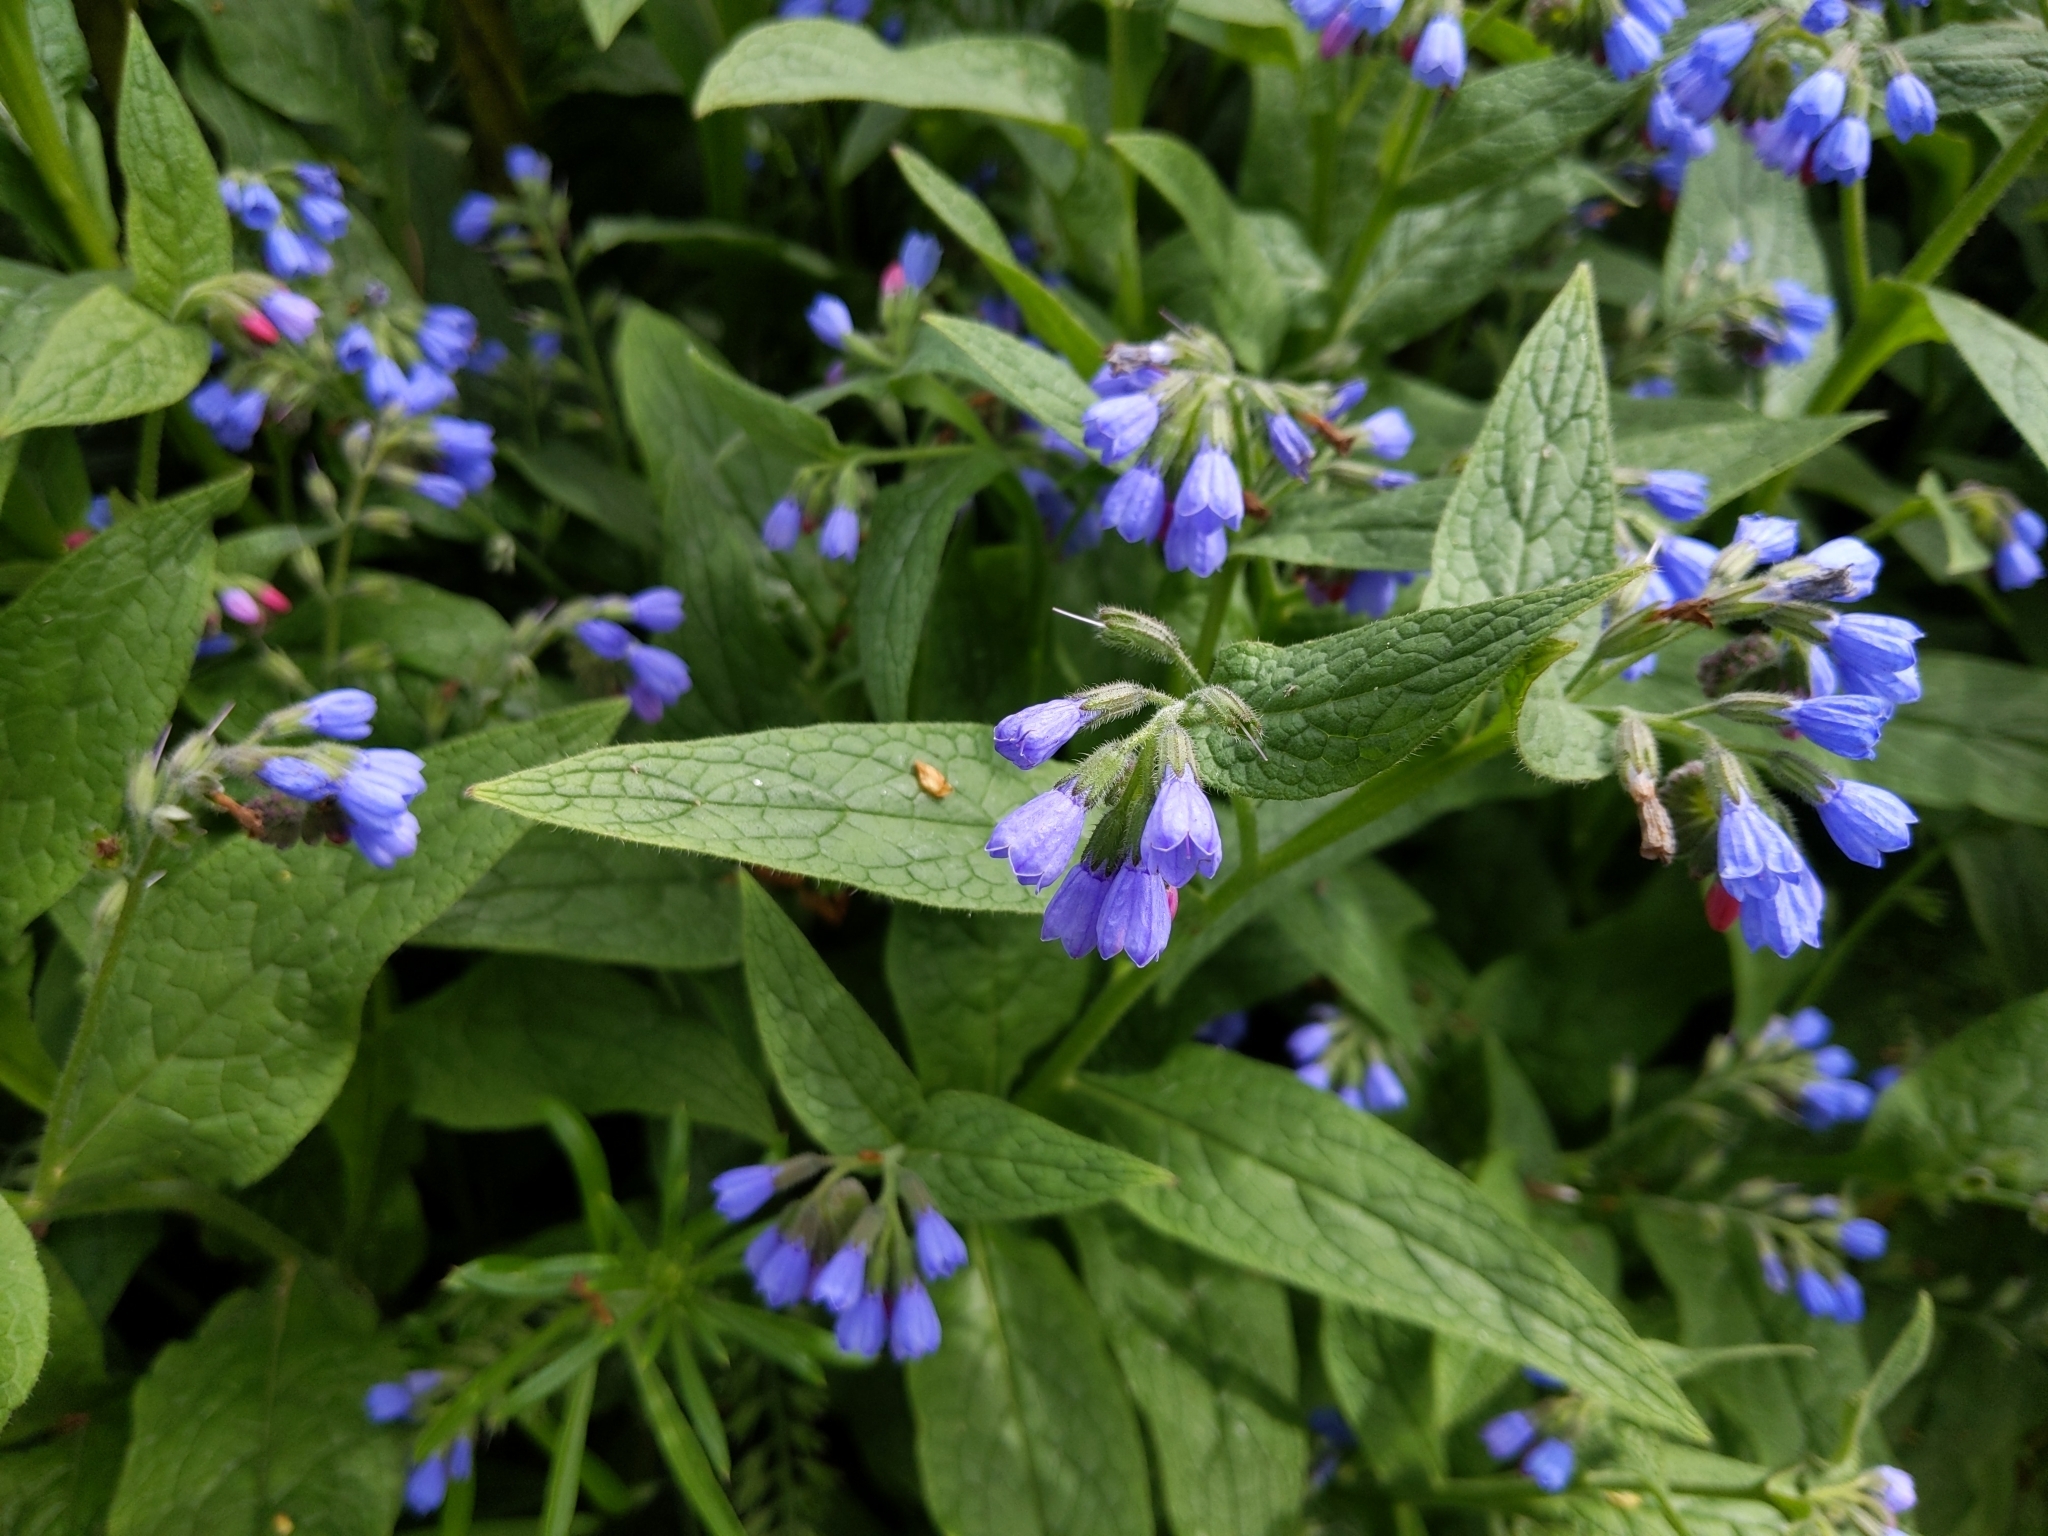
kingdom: Plantae
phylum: Tracheophyta
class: Magnoliopsida
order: Boraginales
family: Boraginaceae
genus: Symphytum
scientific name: Symphytum caucasicum
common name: Caucasian comfrey
